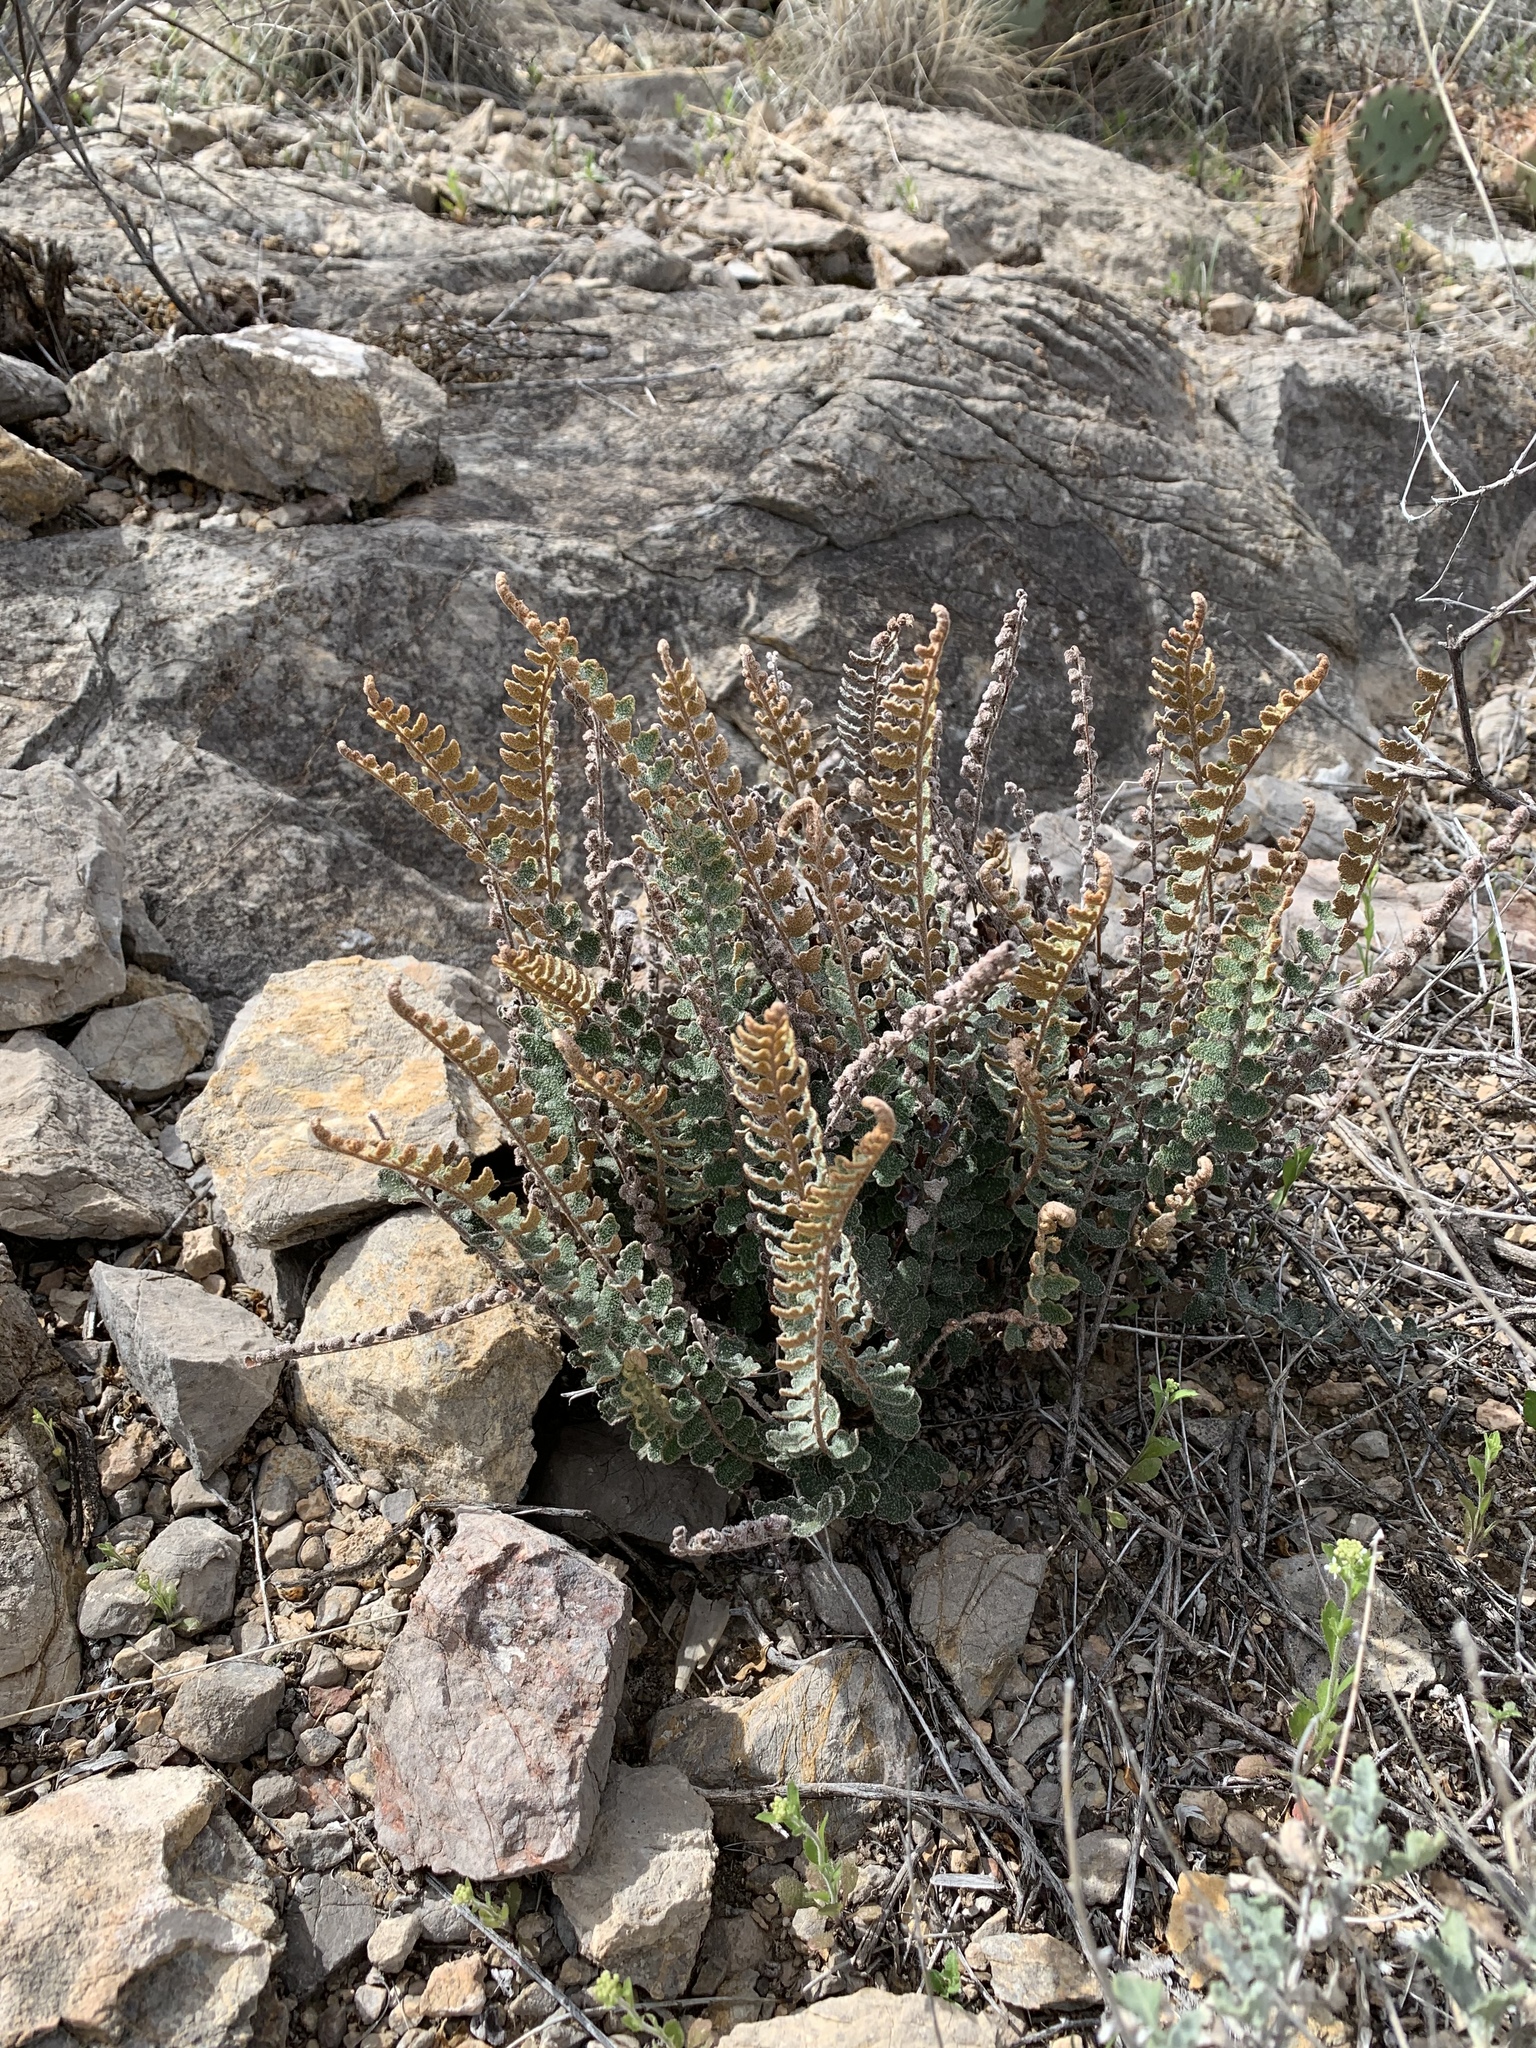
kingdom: Plantae
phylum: Tracheophyta
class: Polypodiopsida
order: Polypodiales
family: Pteridaceae
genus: Astrolepis
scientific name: Astrolepis integerrima
